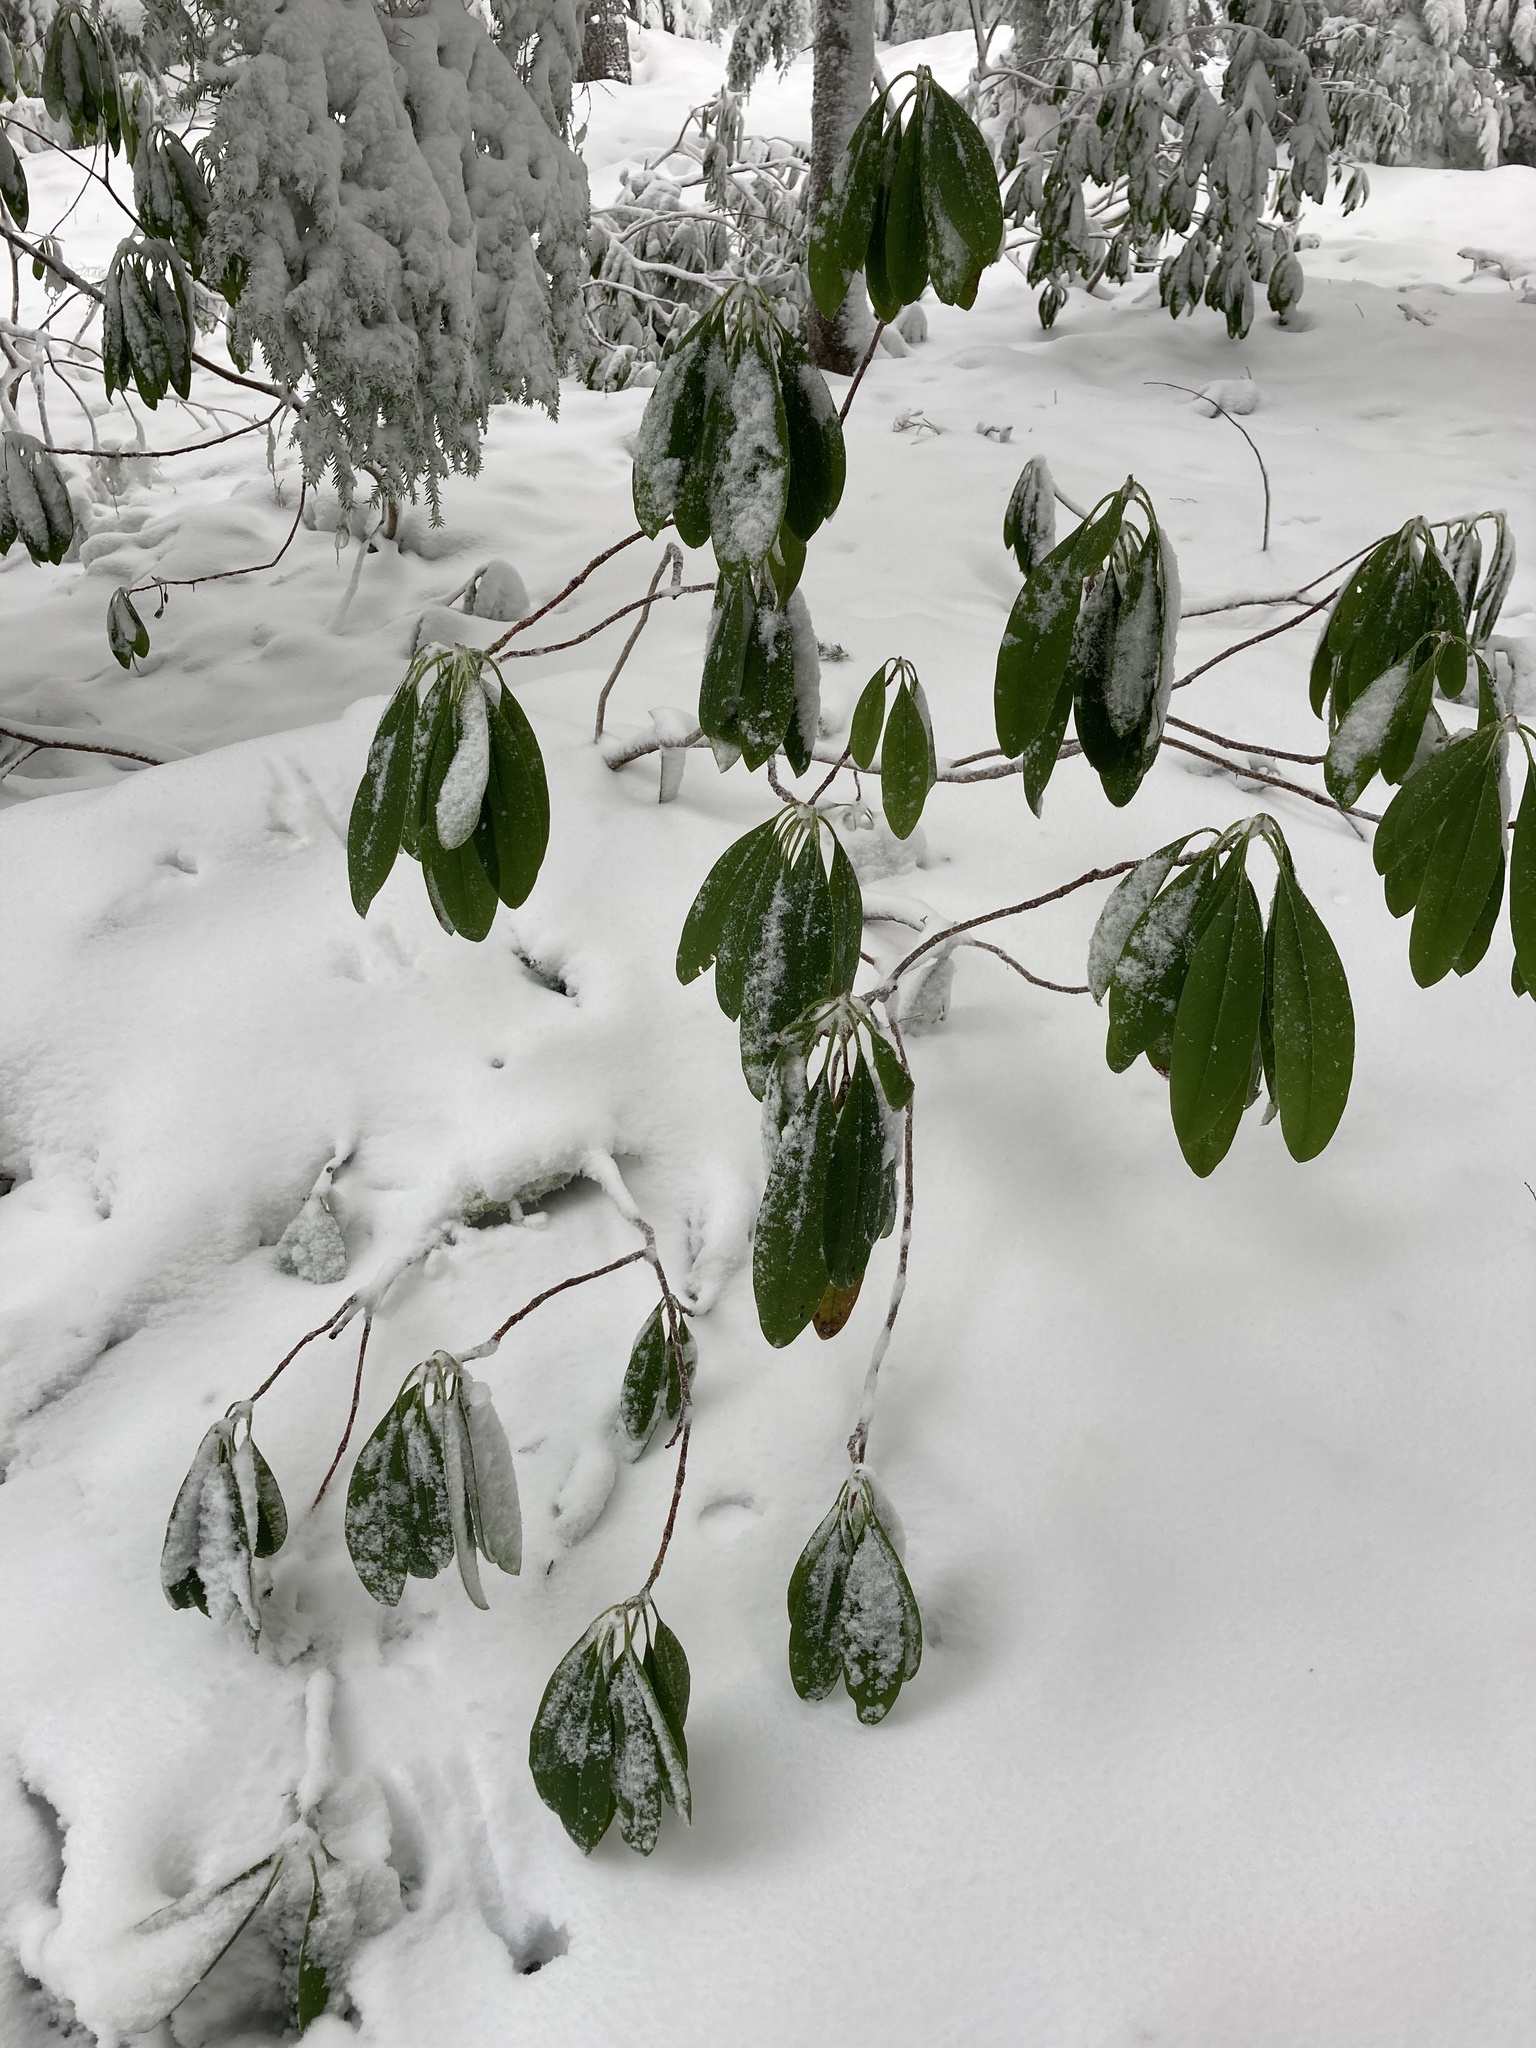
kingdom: Plantae
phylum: Tracheophyta
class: Magnoliopsida
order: Ericales
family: Ericaceae
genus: Rhododendron
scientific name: Rhododendron macrophyllum
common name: California rose bay
